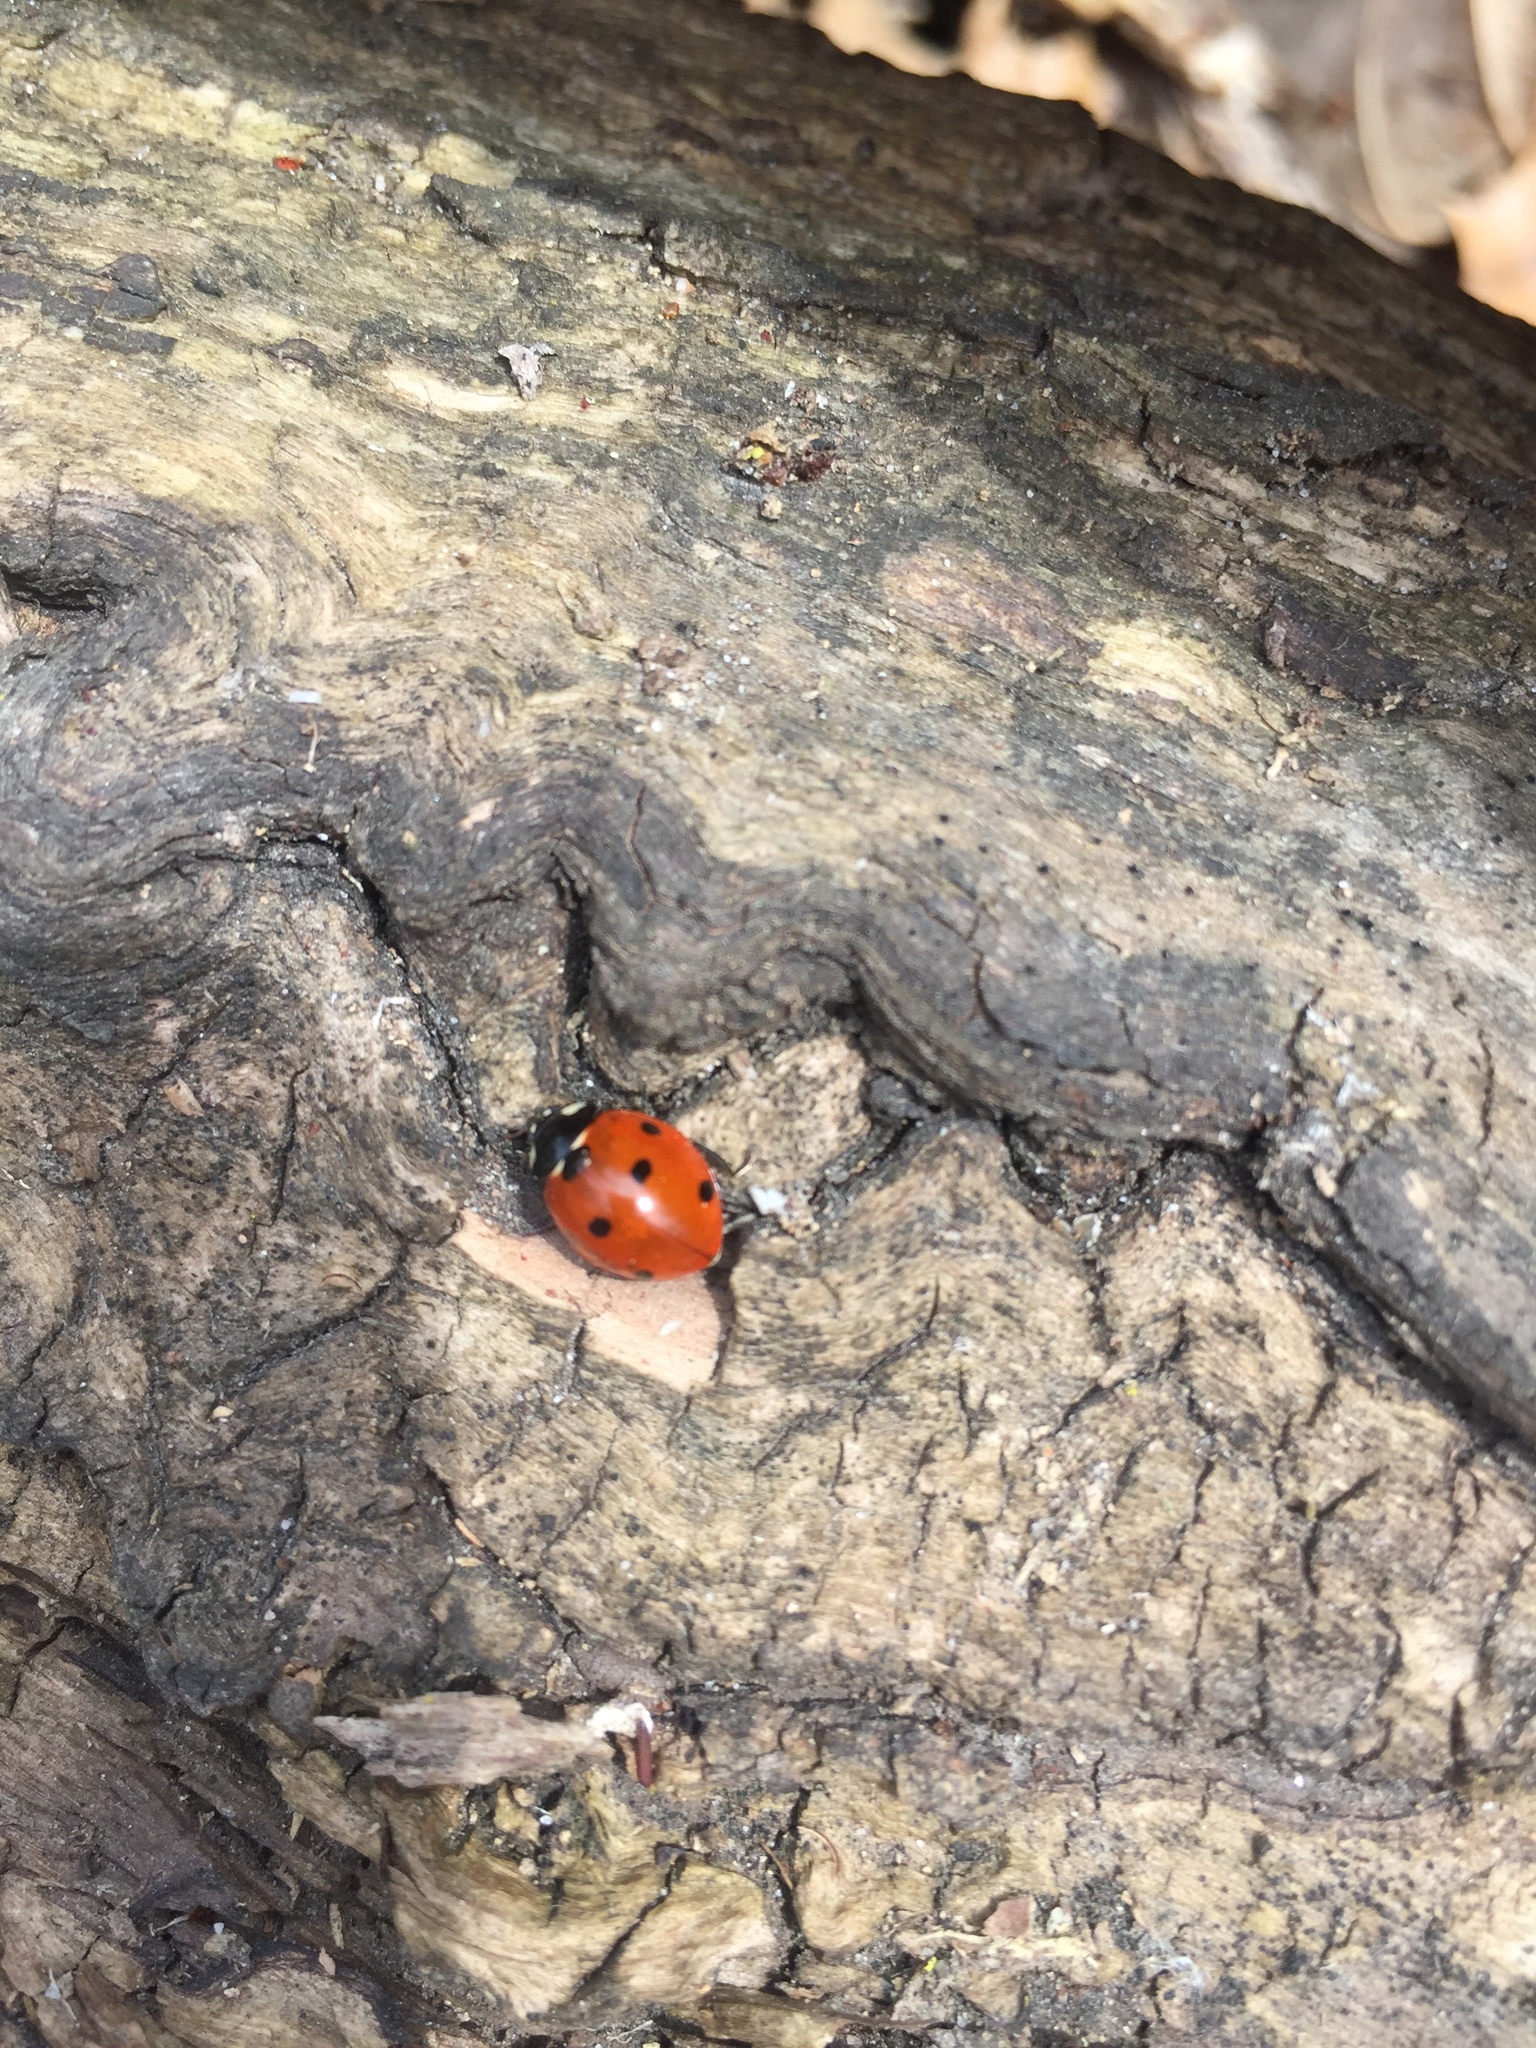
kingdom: Animalia
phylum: Arthropoda
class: Insecta
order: Coleoptera
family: Coccinellidae
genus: Coccinella
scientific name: Coccinella septempunctata
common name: Sevenspotted lady beetle
